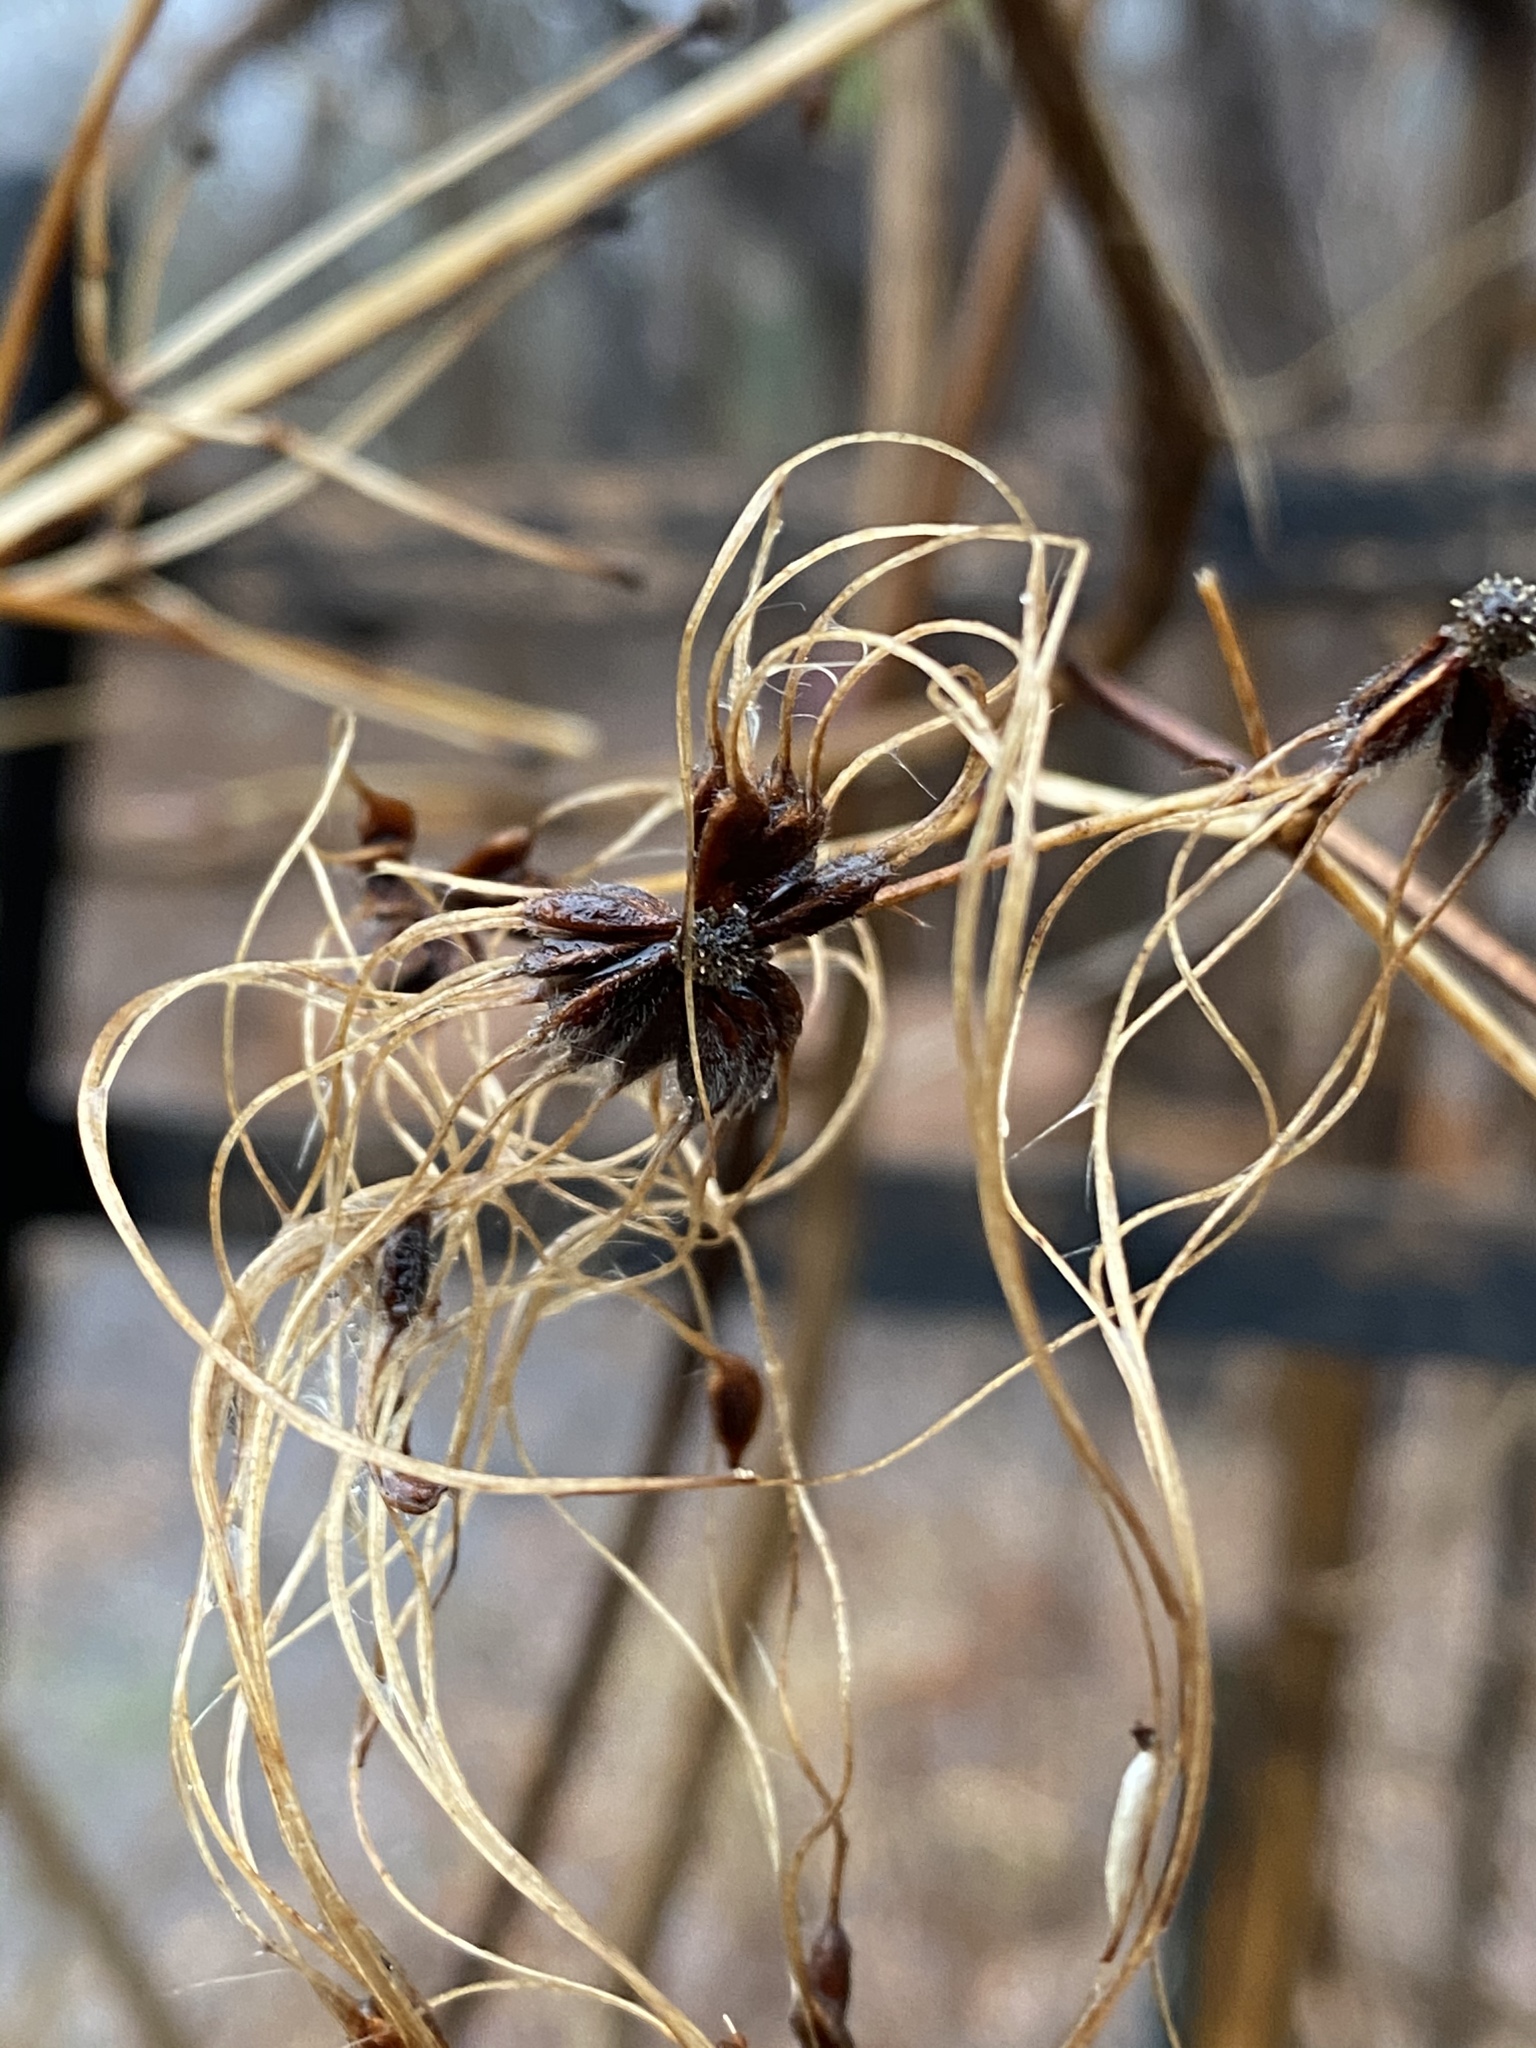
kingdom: Plantae
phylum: Tracheophyta
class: Magnoliopsida
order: Ranunculales
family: Ranunculaceae
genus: Clematis
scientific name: Clematis virginiana
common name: Virgin's-bower
